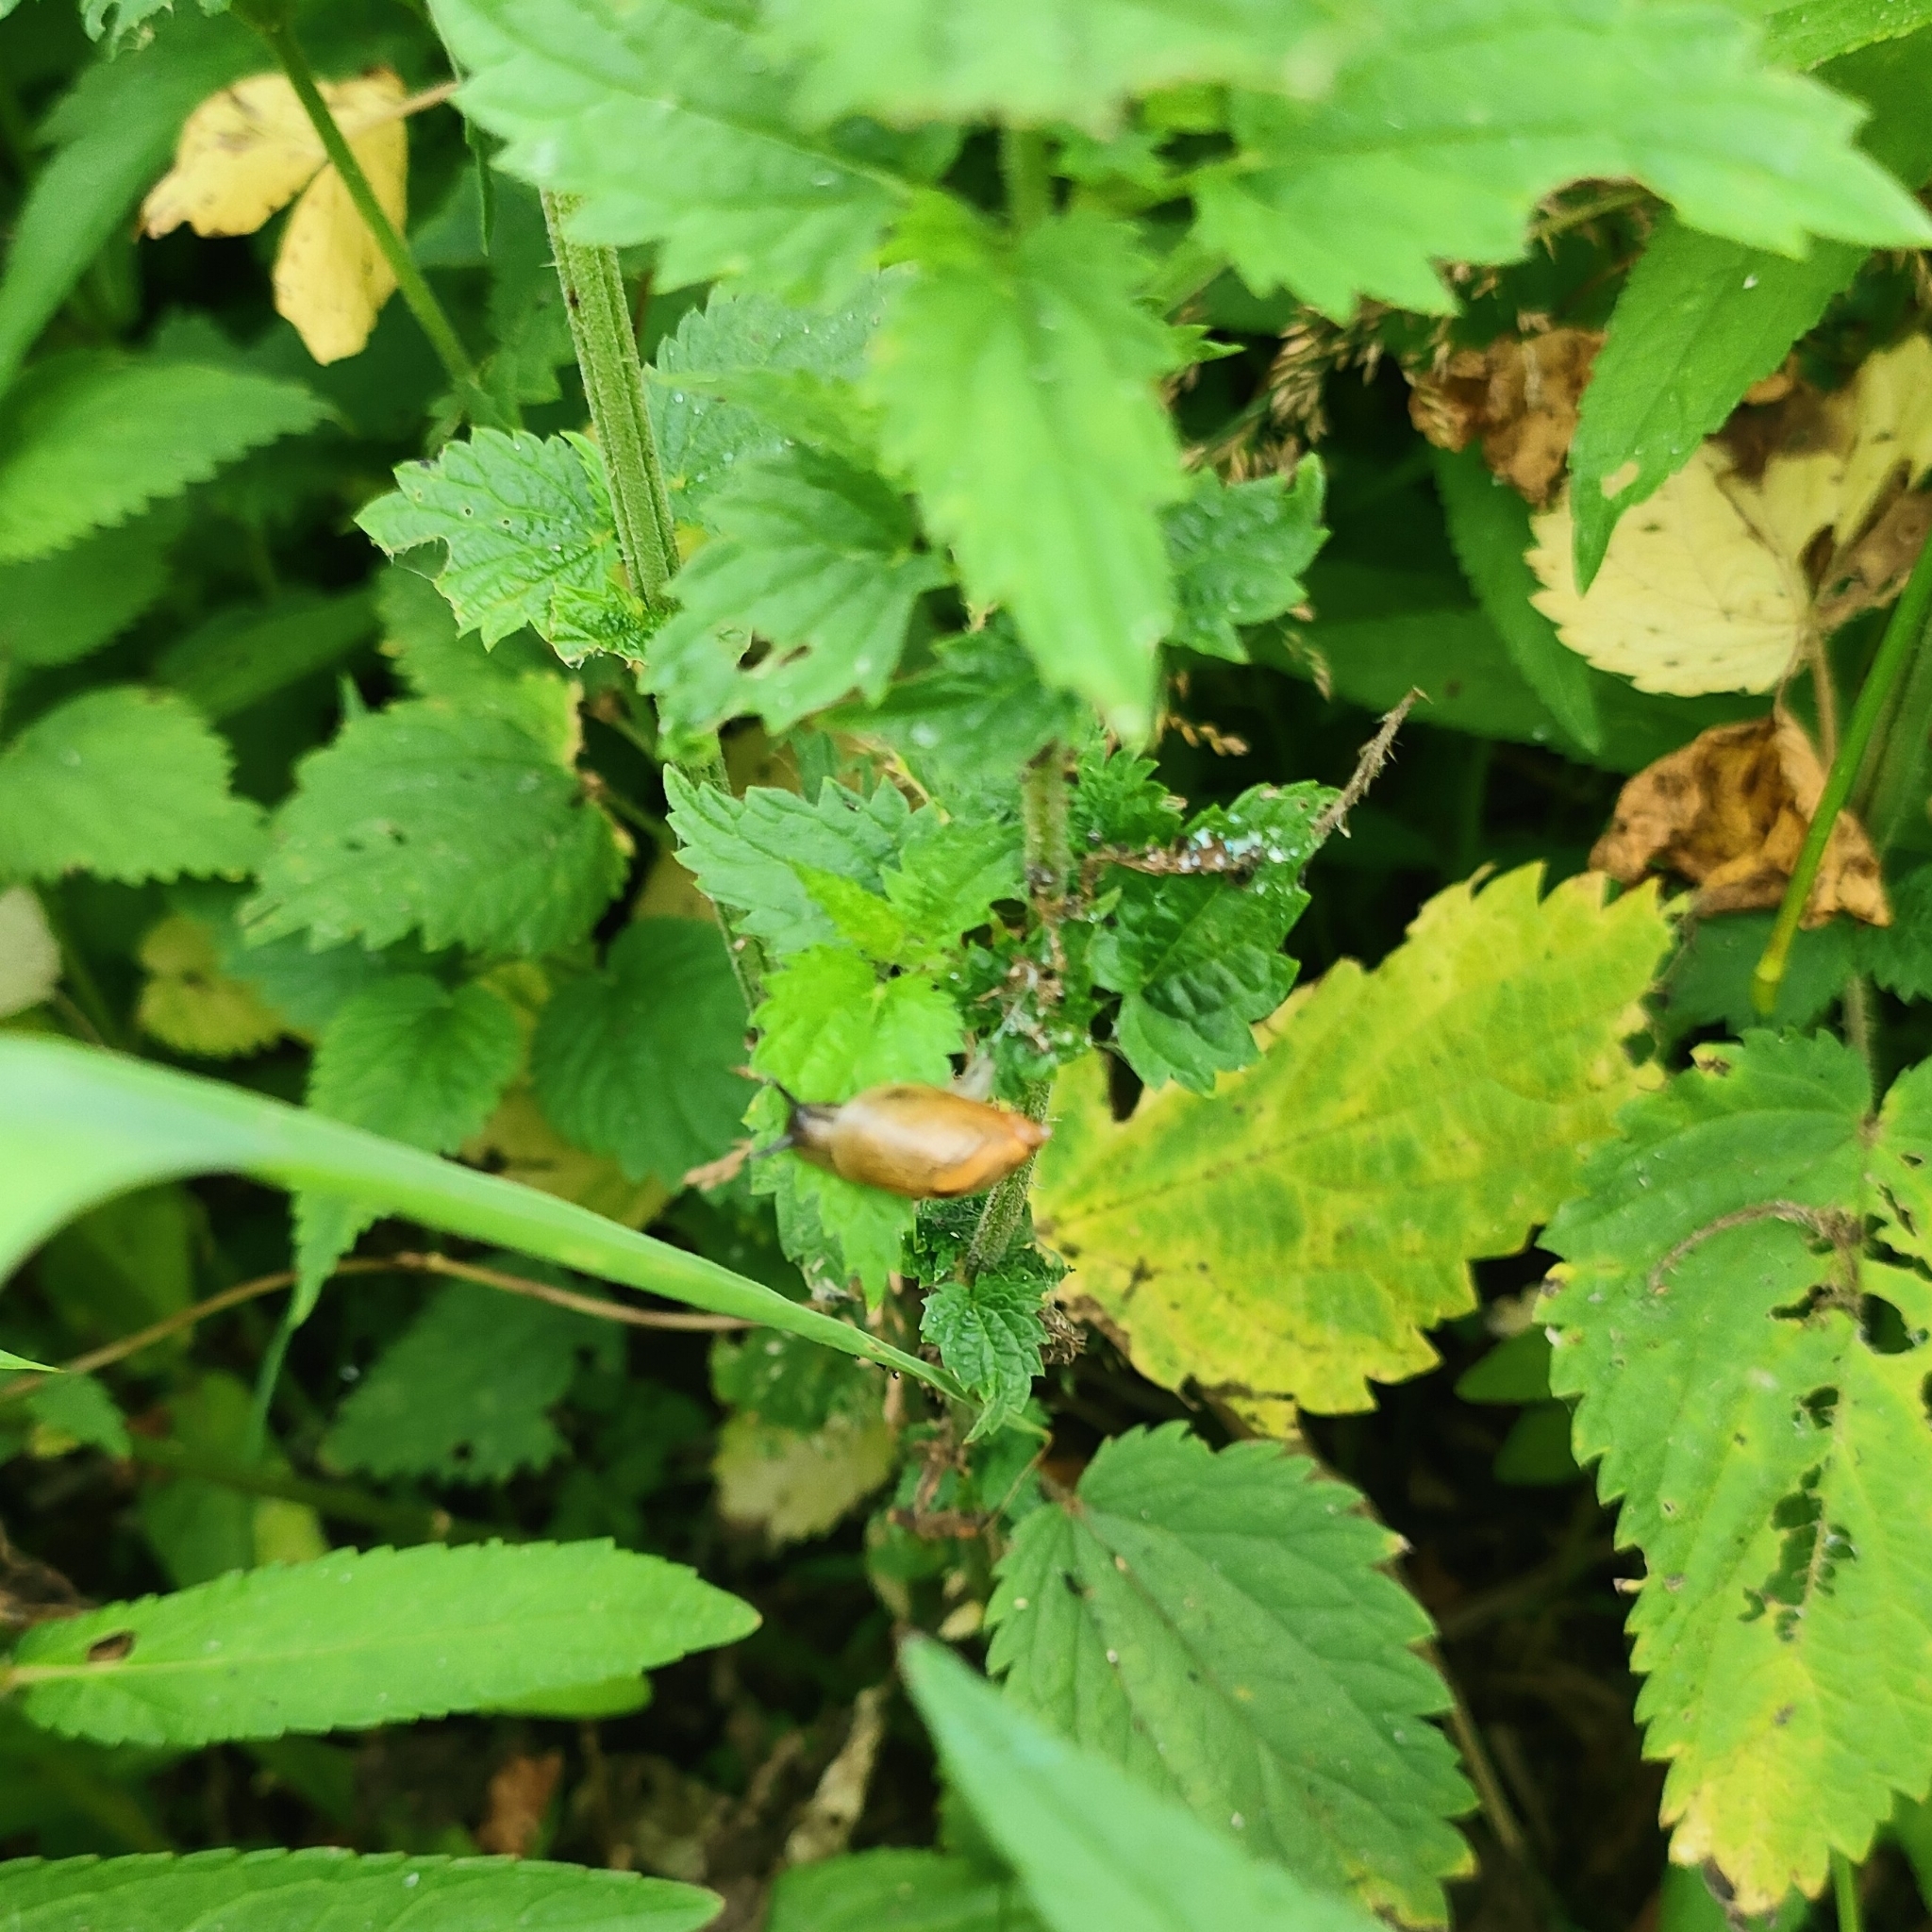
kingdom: Animalia
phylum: Mollusca
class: Gastropoda
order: Stylommatophora
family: Succineidae
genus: Succinea
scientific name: Succinea putris
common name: European ambersnail
